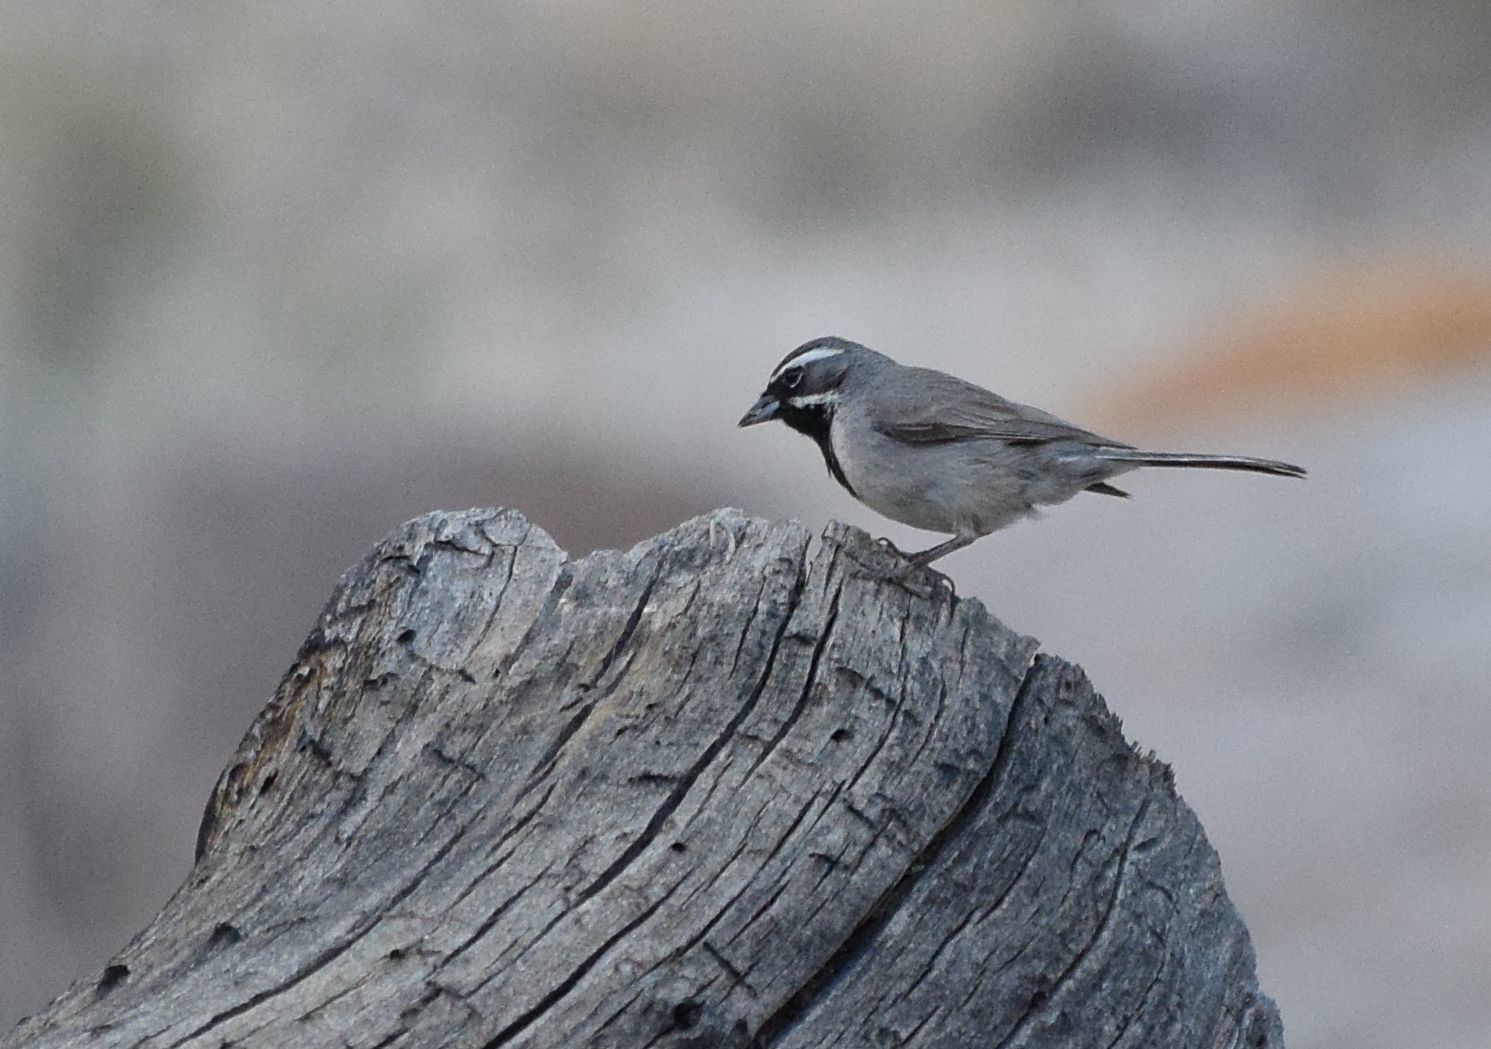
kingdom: Animalia
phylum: Chordata
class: Aves
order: Passeriformes
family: Passerellidae
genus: Amphispiza
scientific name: Amphispiza bilineata
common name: Black-throated sparrow
